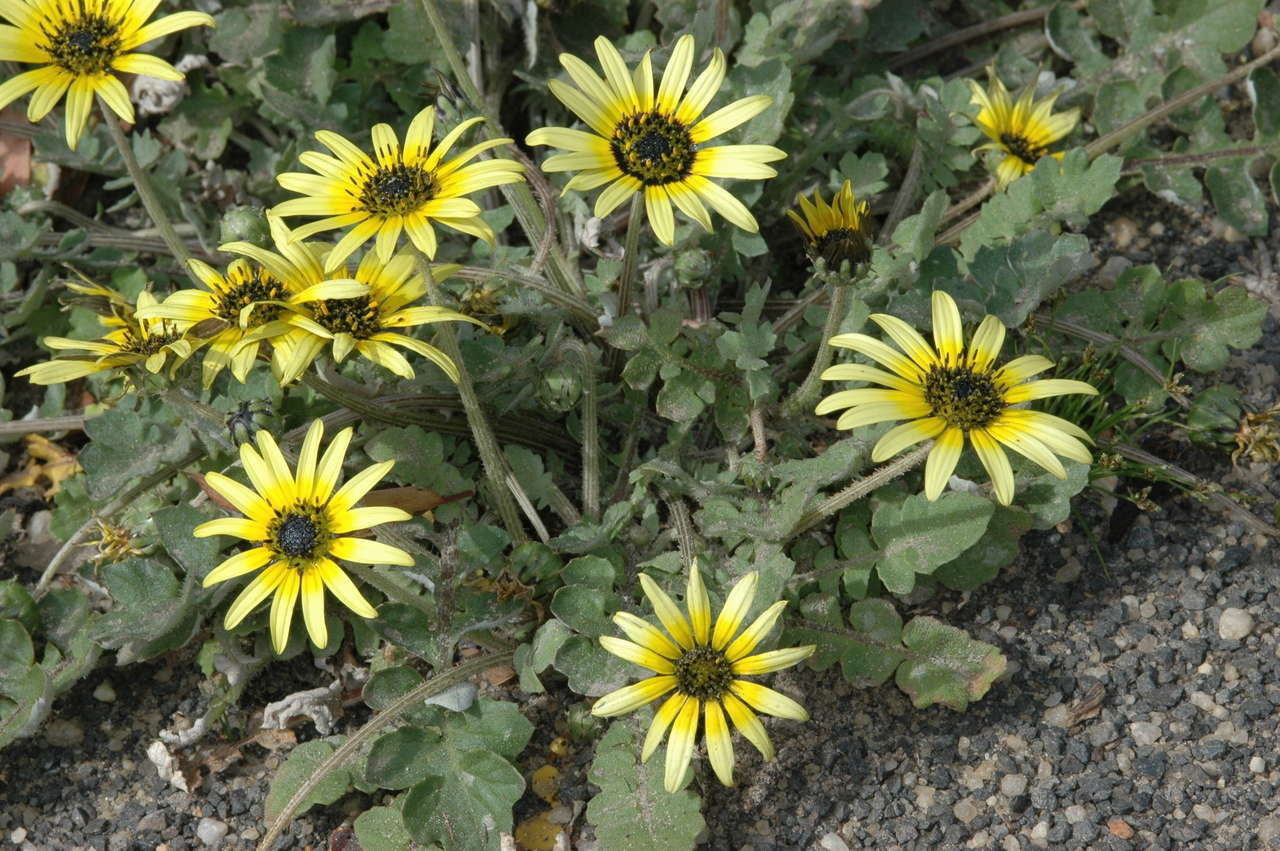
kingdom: Plantae
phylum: Tracheophyta
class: Magnoliopsida
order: Asterales
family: Asteraceae
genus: Arctotheca
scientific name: Arctotheca calendula
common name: Capeweed
